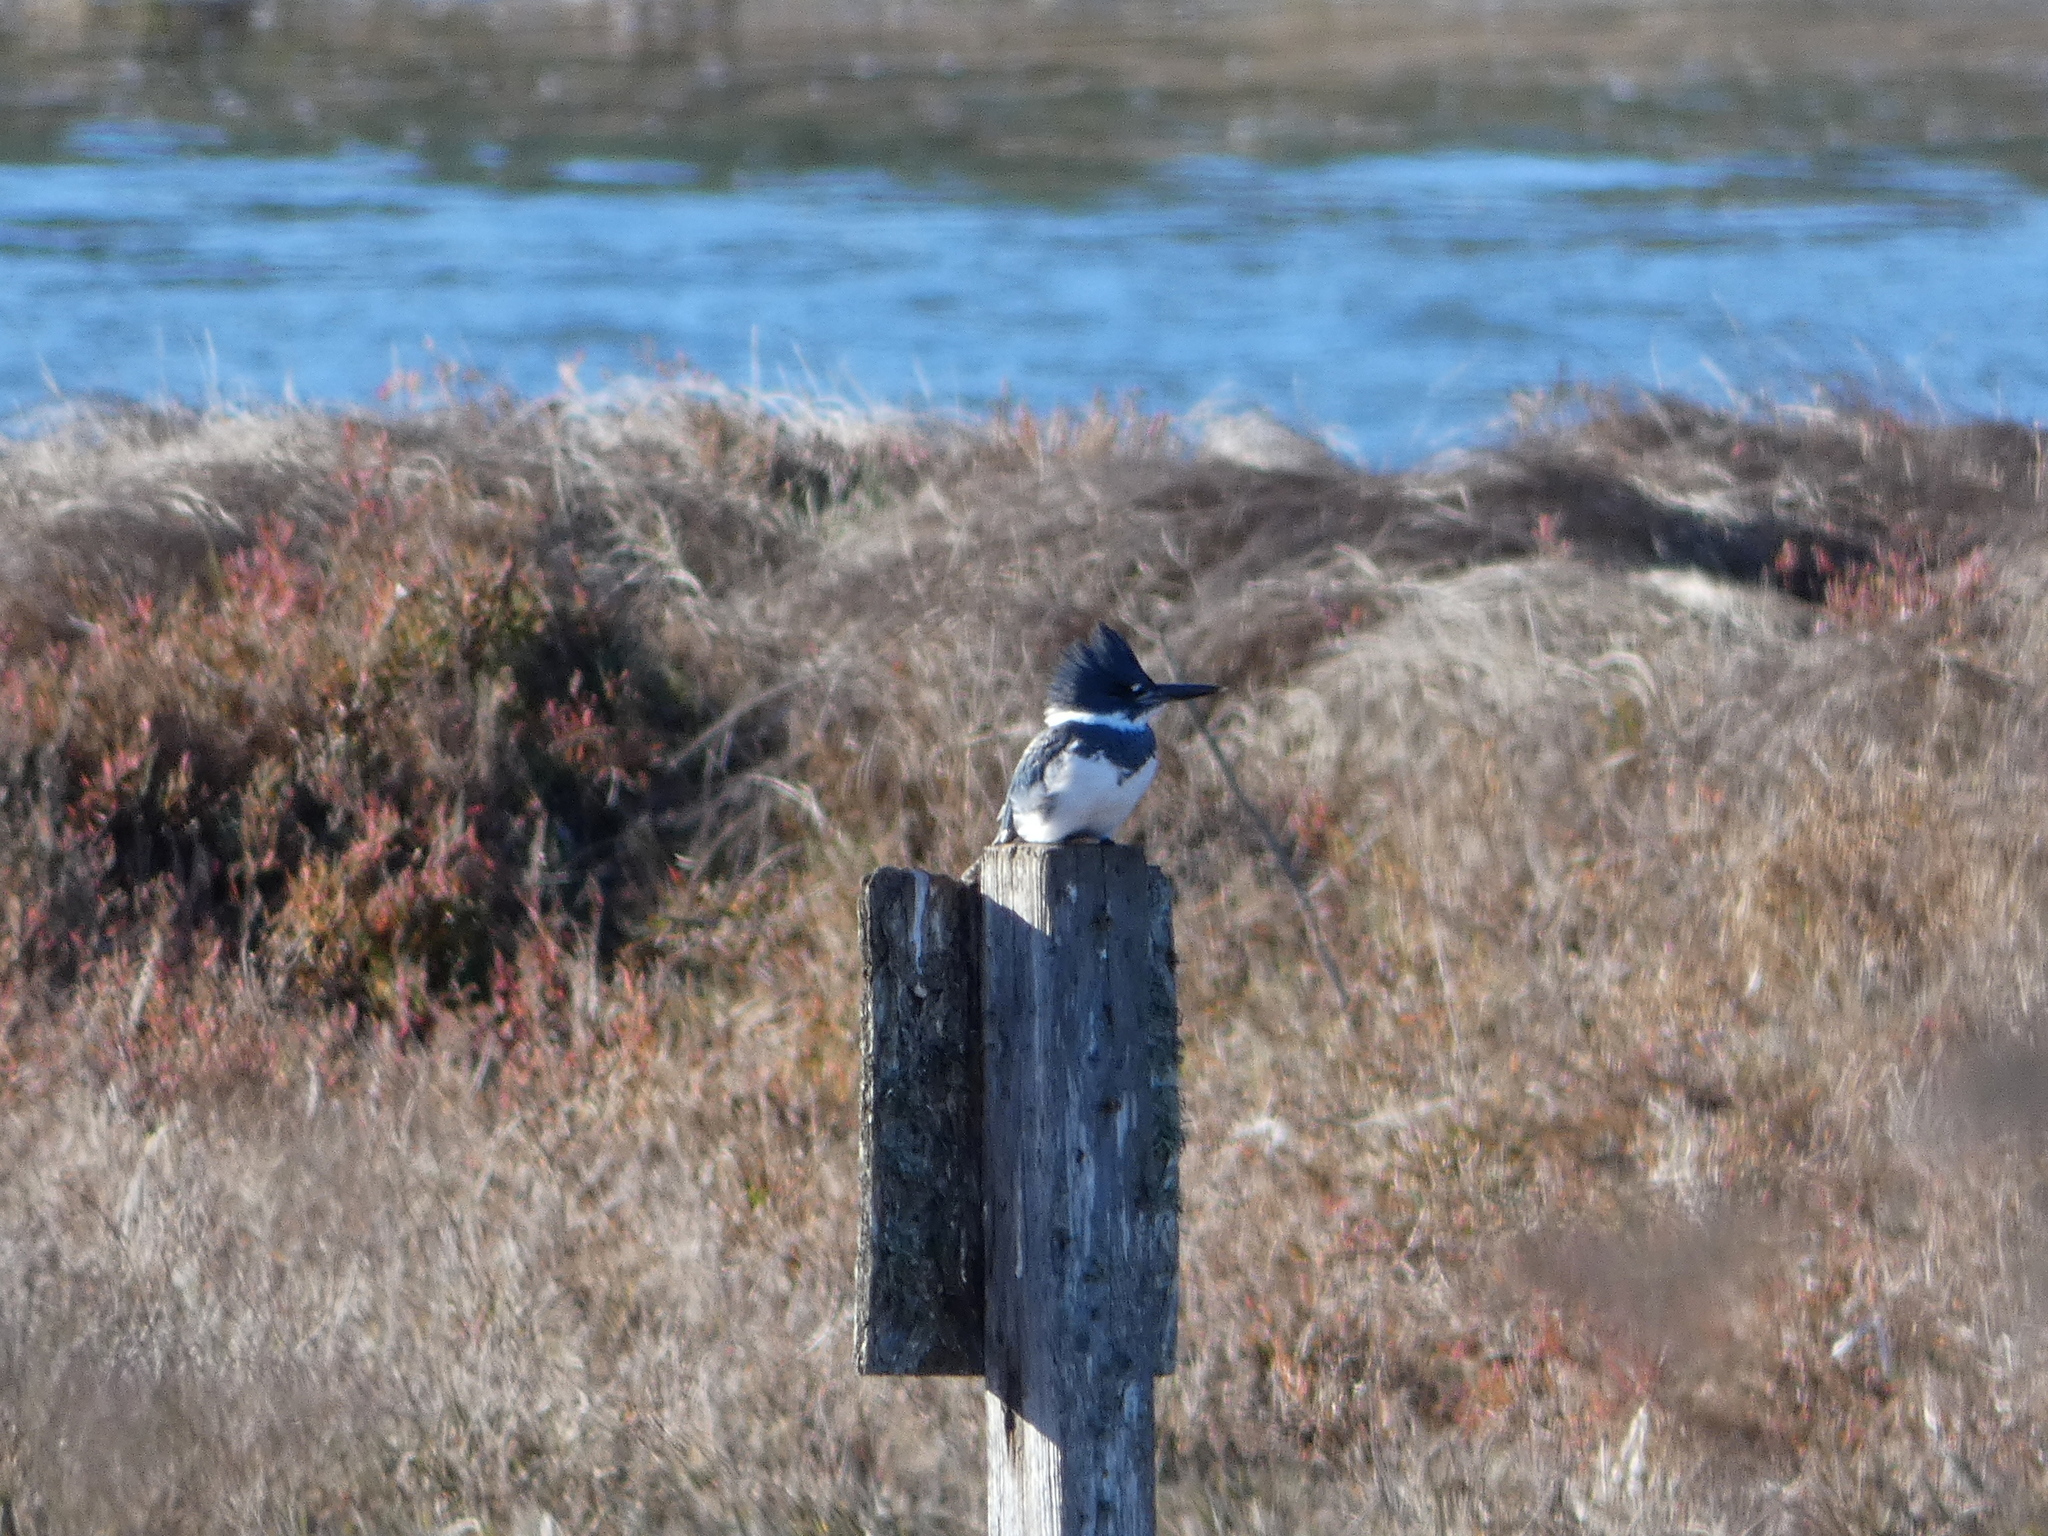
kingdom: Animalia
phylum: Chordata
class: Aves
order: Coraciiformes
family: Alcedinidae
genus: Megaceryle
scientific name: Megaceryle alcyon
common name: Belted kingfisher
